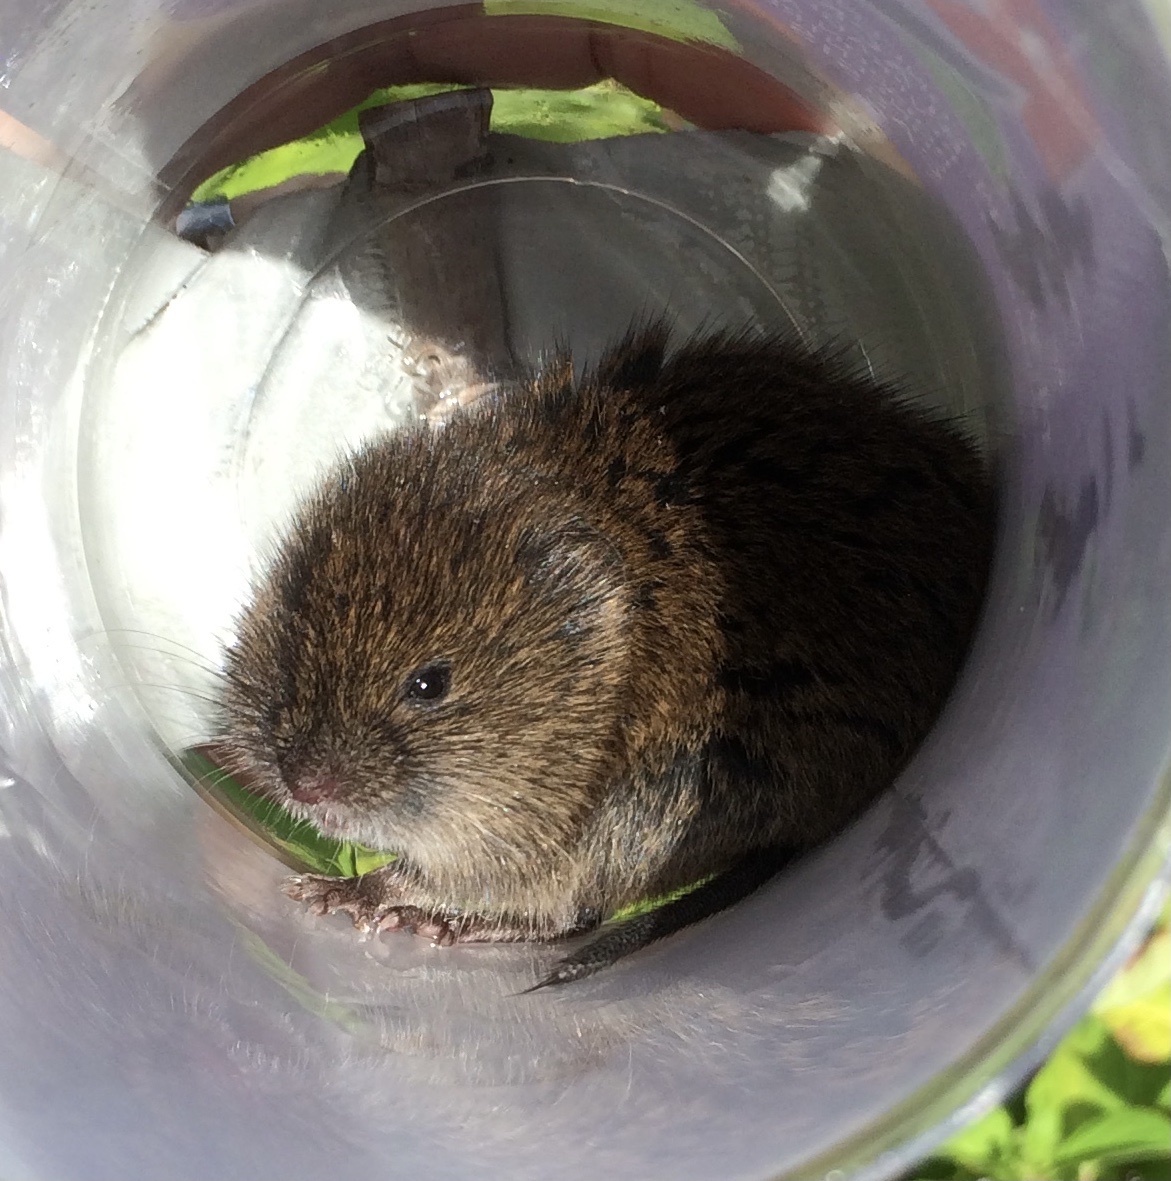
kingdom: Animalia
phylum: Chordata
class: Mammalia
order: Rodentia
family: Cricetidae
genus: Microtus
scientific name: Microtus pennsylvanicus
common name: Meadow vole
